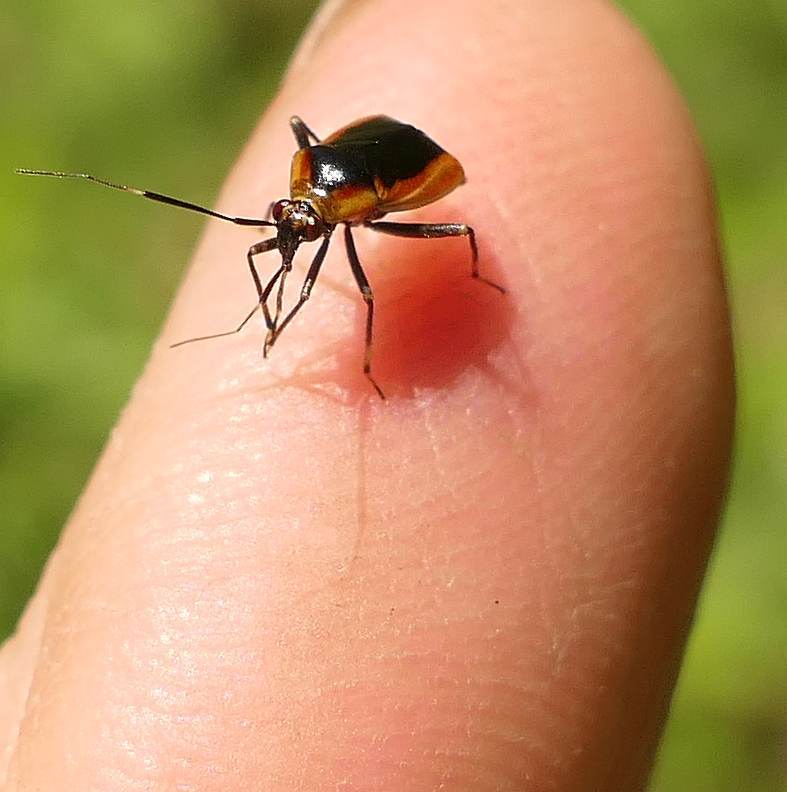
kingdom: Animalia
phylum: Arthropoda
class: Insecta
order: Hemiptera
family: Miridae
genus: Metriorrhynchomiris
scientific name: Metriorrhynchomiris dislocatus
